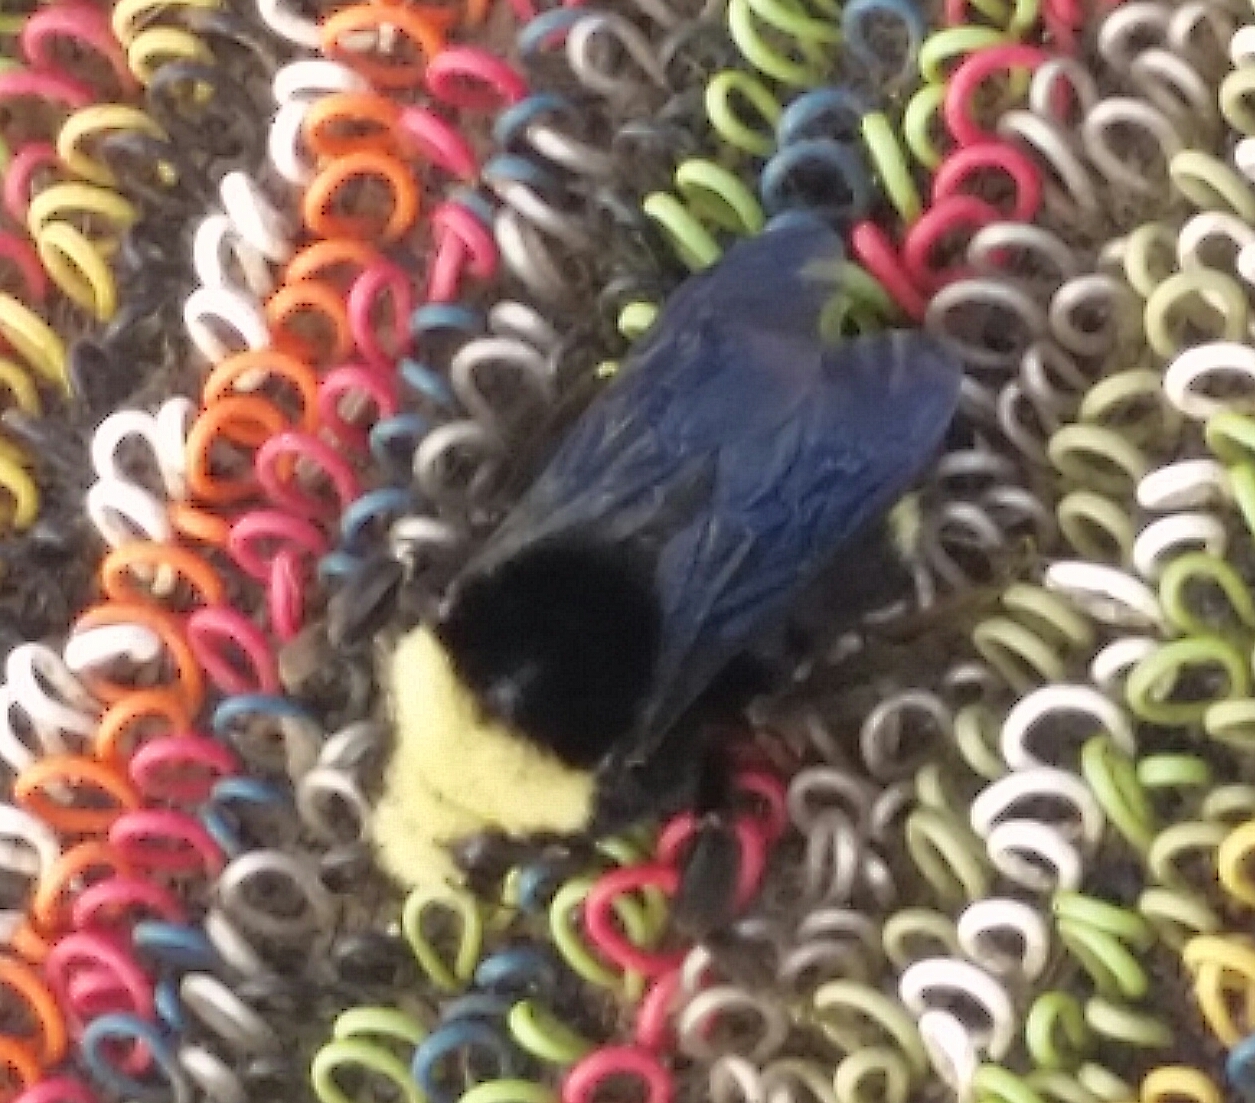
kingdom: Animalia
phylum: Arthropoda
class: Insecta
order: Hymenoptera
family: Apidae
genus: Bombus
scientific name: Bombus vosnesenskii
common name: Vosnesensky bumble bee
